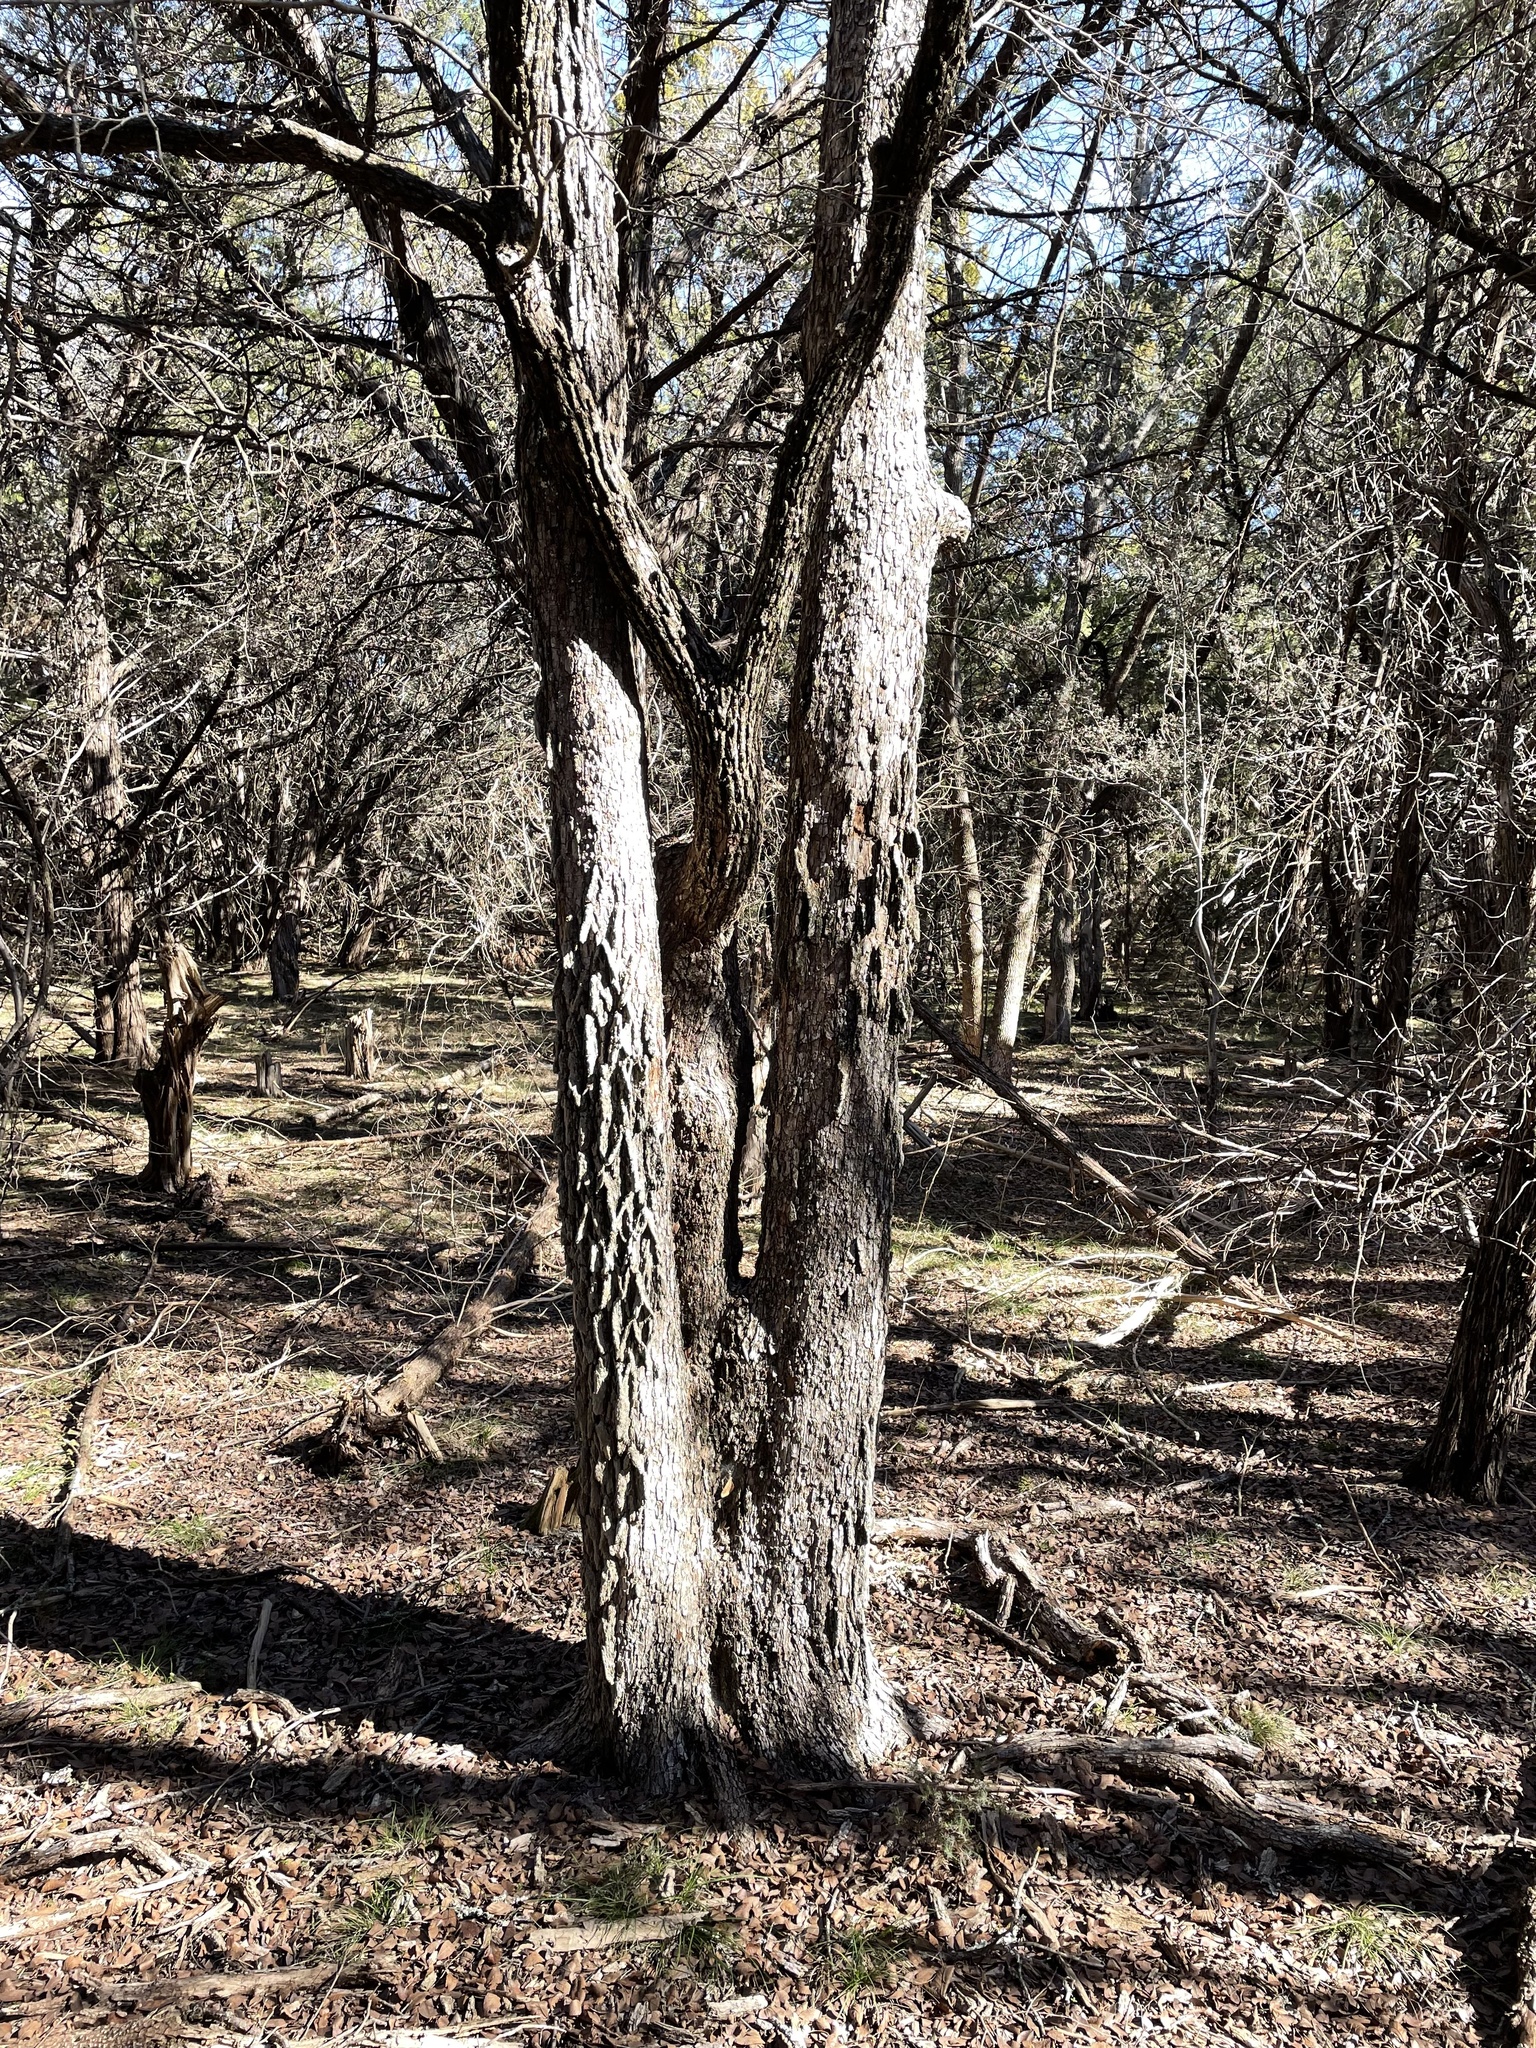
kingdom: Plantae
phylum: Tracheophyta
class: Magnoliopsida
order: Rosales
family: Ulmaceae
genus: Ulmus
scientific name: Ulmus crassifolia
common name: Basket elm
